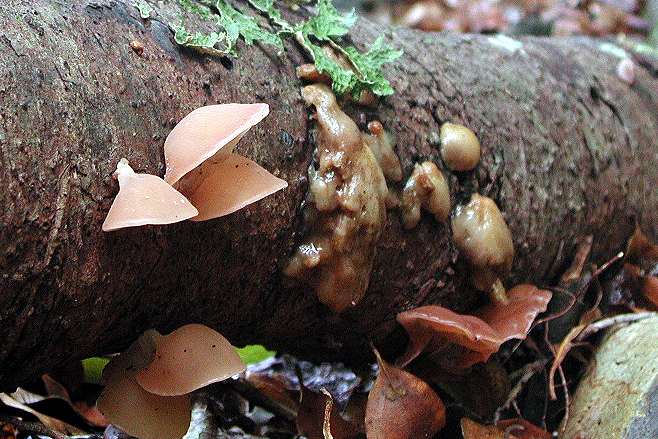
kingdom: Fungi
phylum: Basidiomycota
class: Agaricomycetes
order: Auriculariales
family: Auriculariaceae
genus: Auricularia
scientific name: Auricularia auricula-judae
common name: Jelly ear
